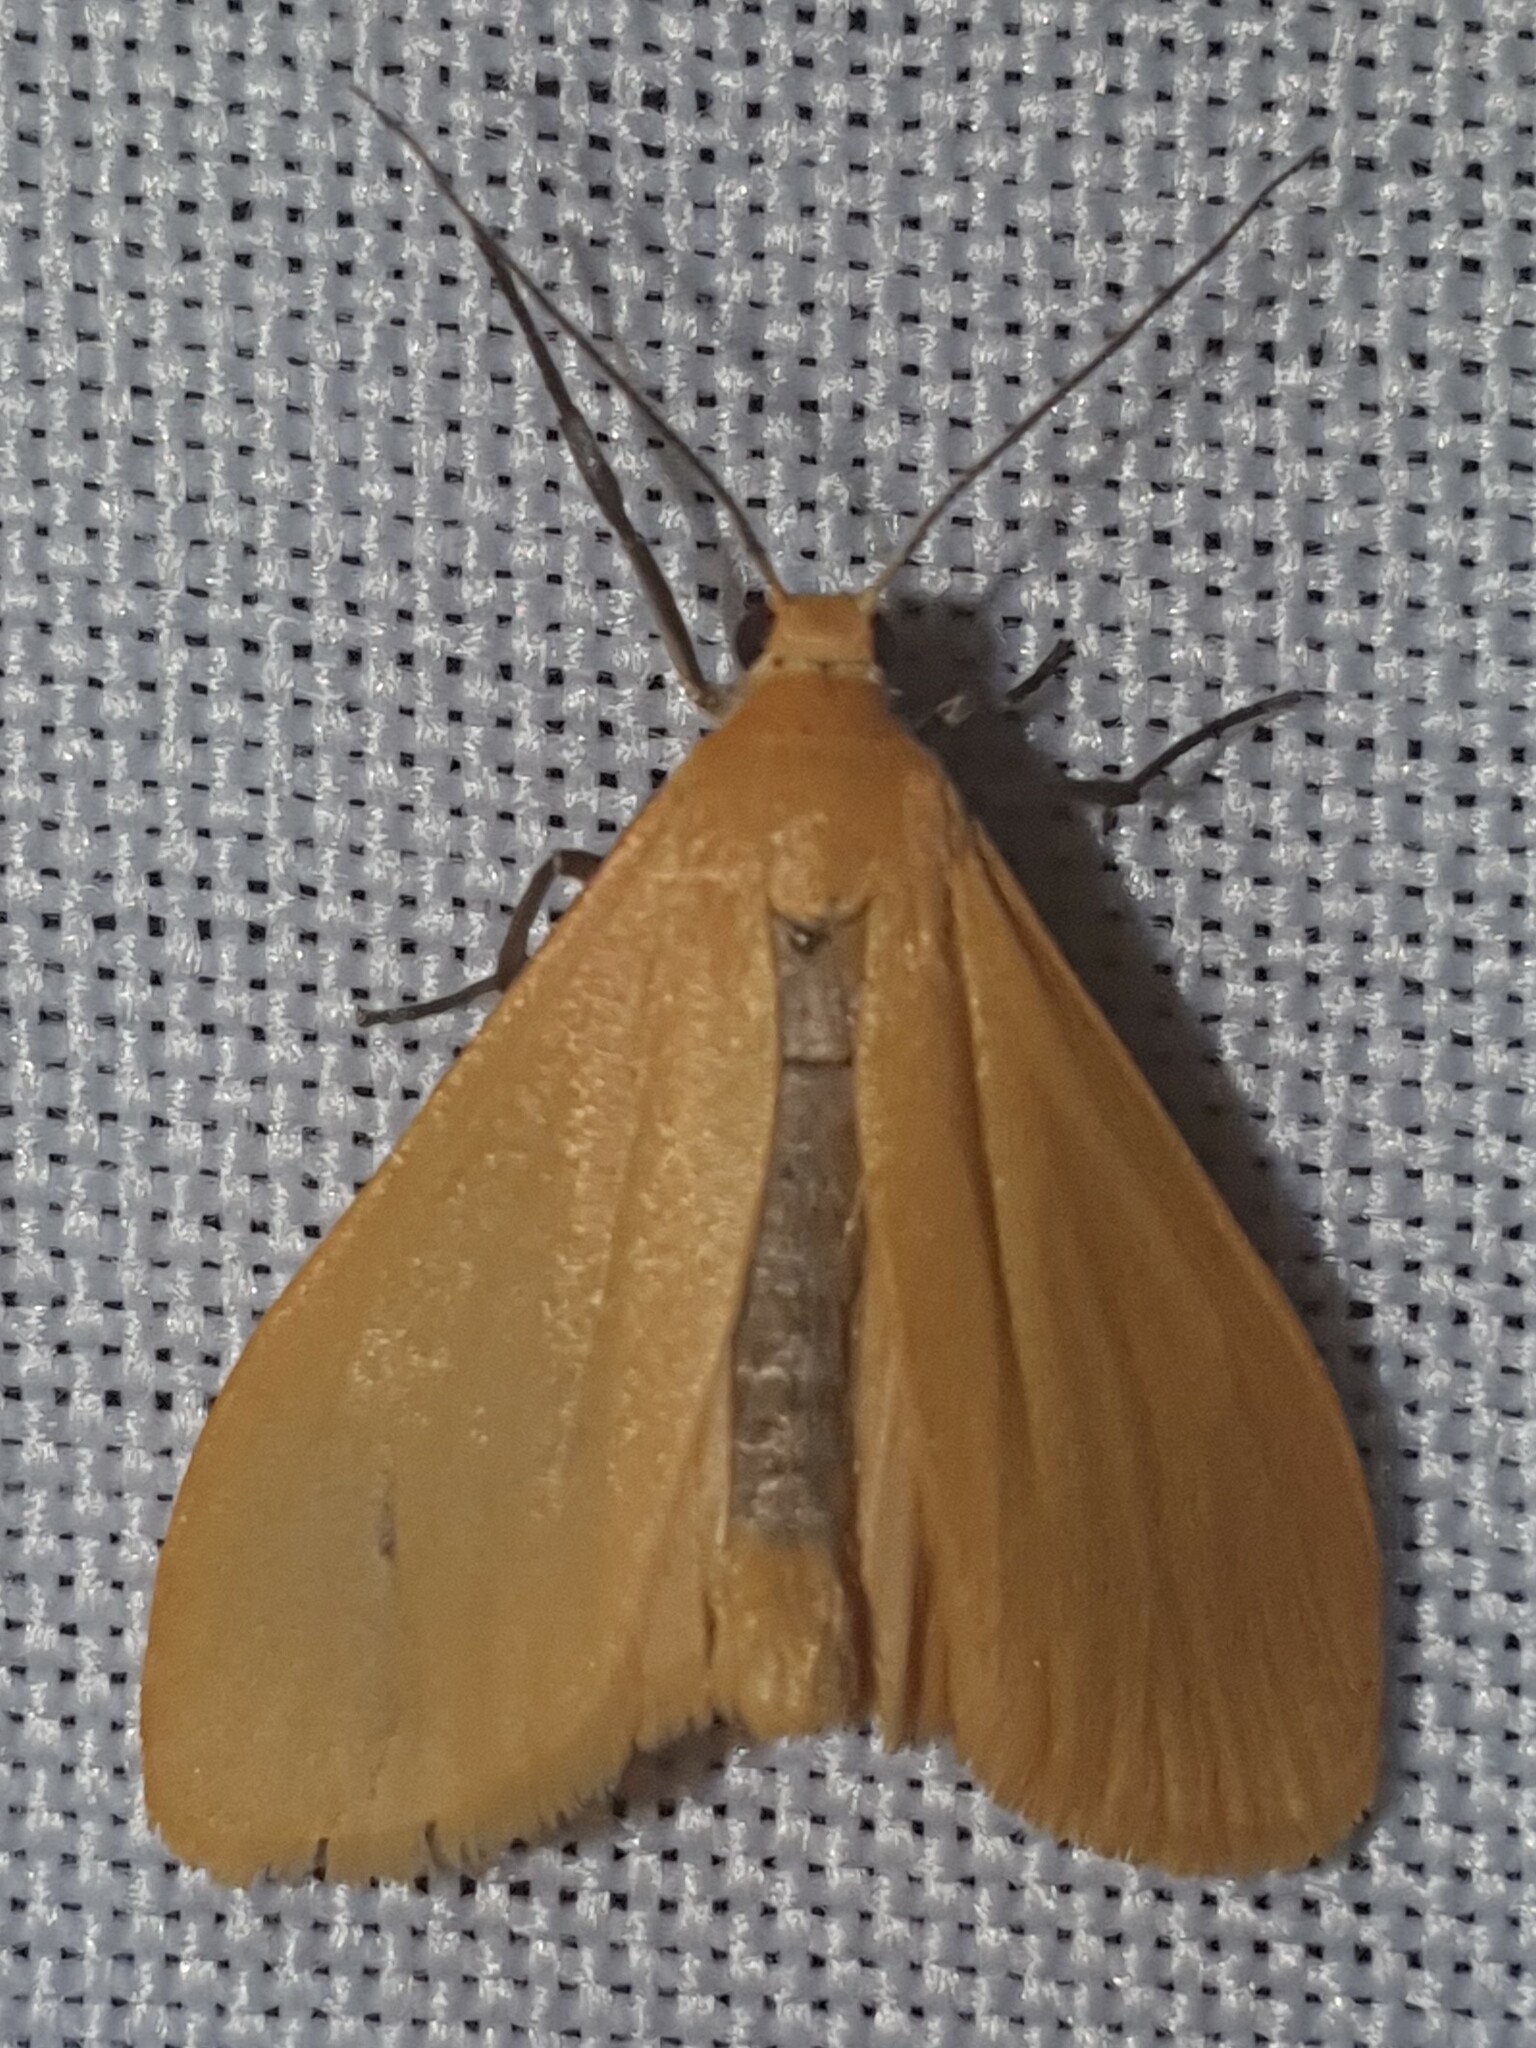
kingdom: Animalia
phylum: Arthropoda
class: Insecta
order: Lepidoptera
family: Erebidae
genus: Wittia
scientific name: Wittia sororcula
